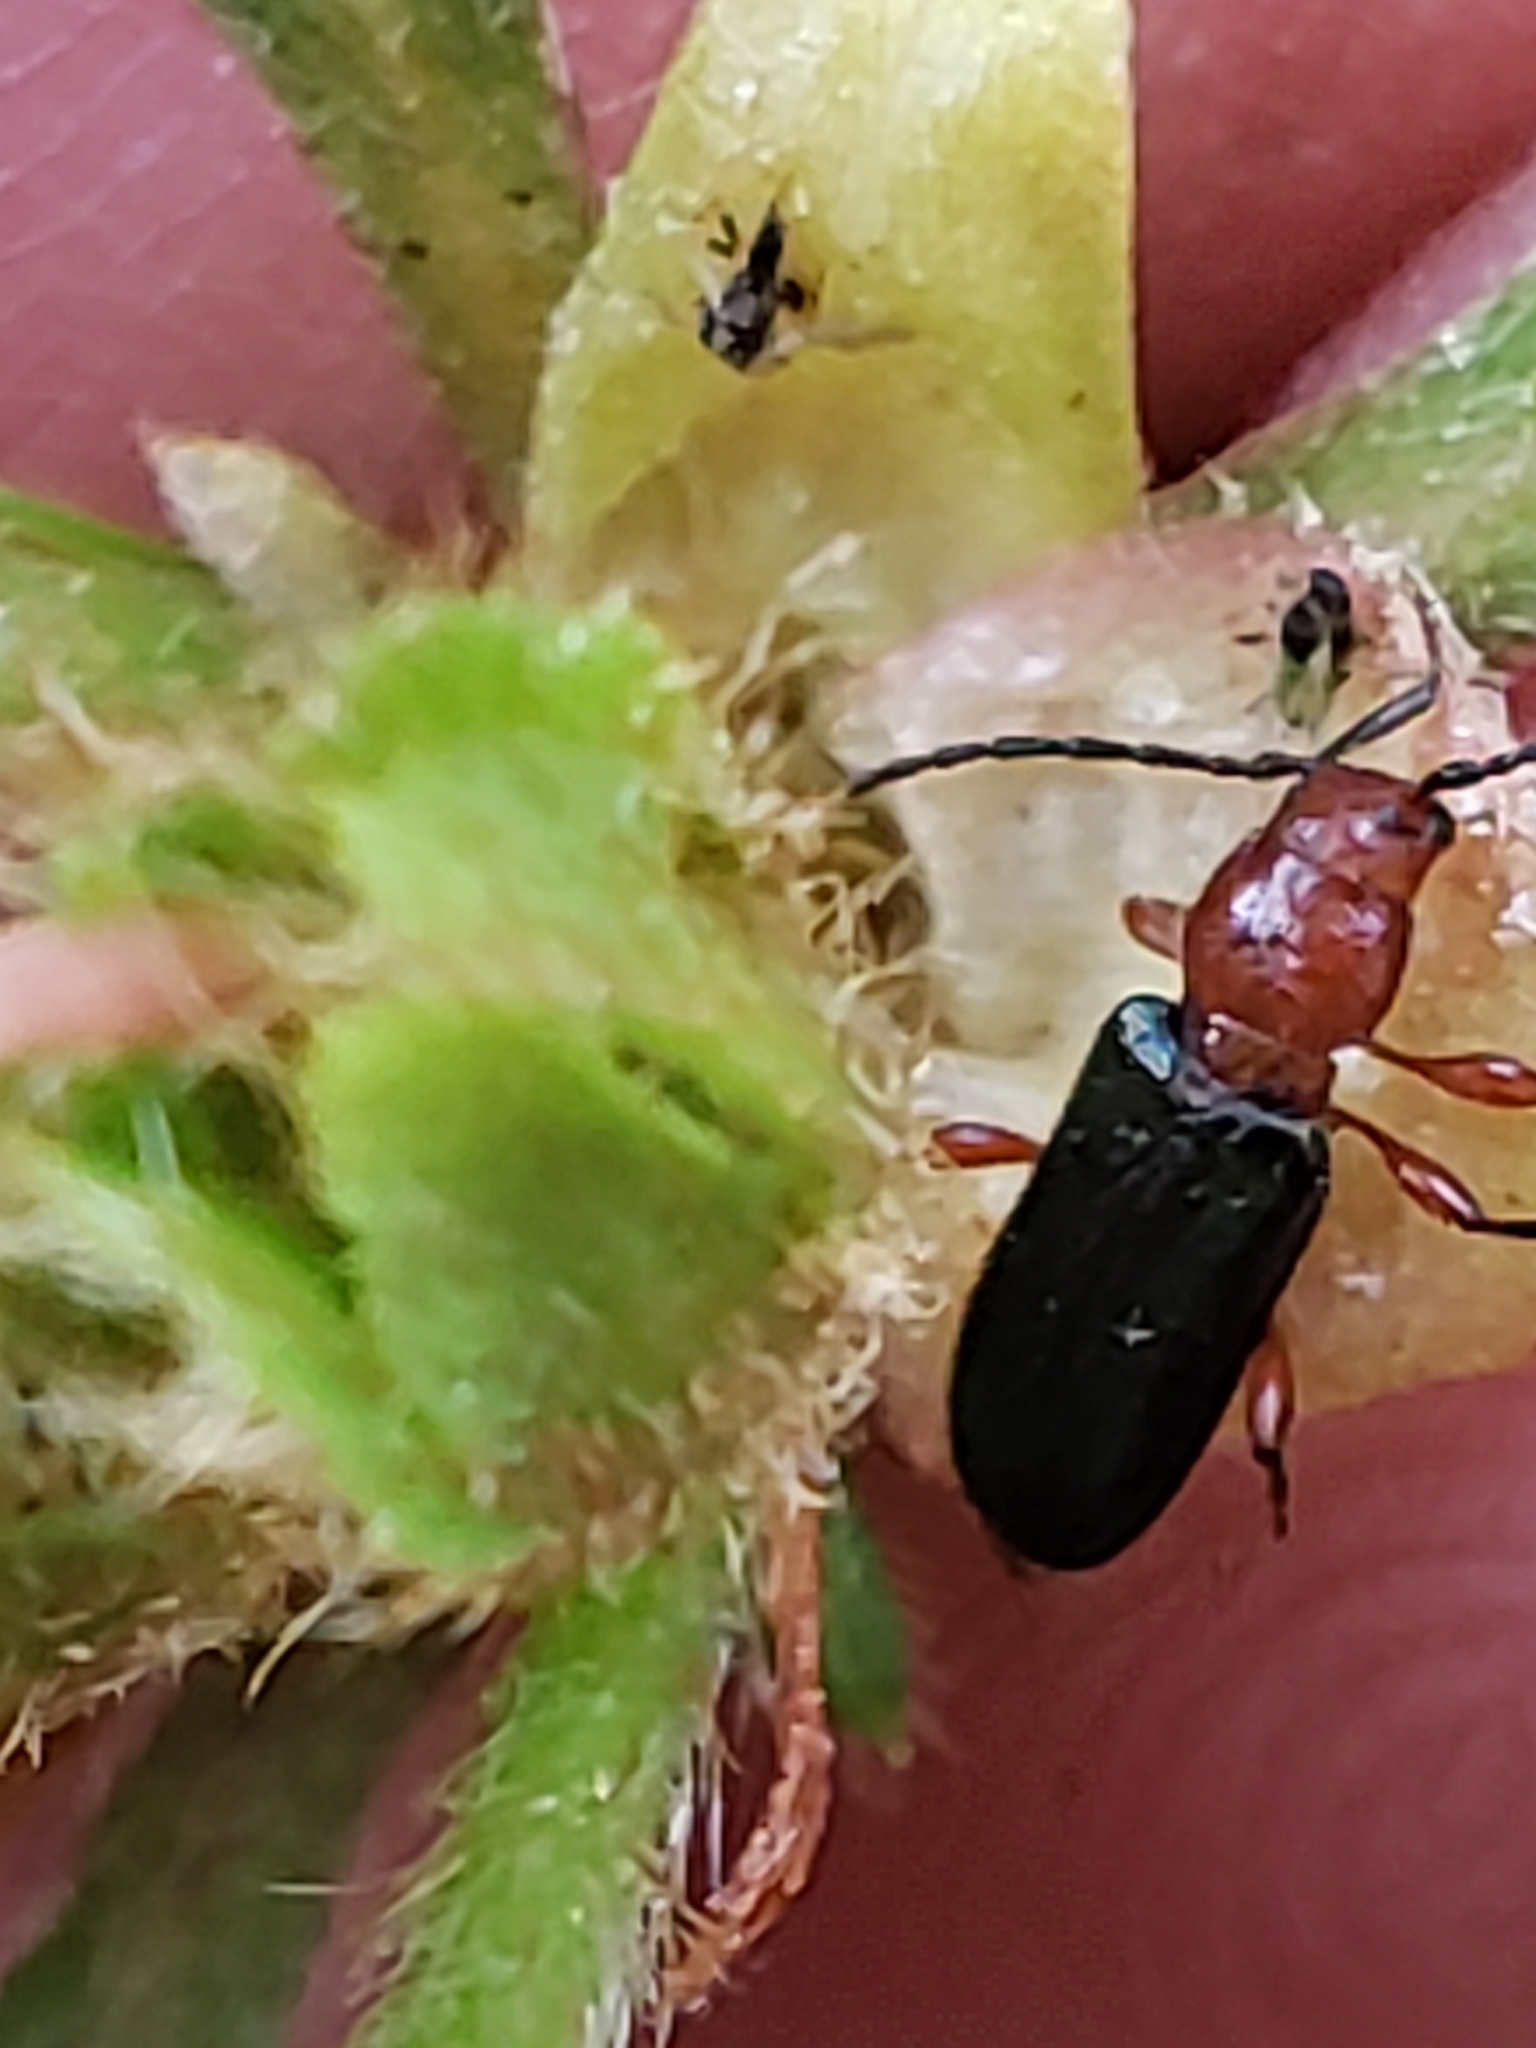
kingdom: Animalia
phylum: Arthropoda
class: Insecta
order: Coleoptera
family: Cerambycidae
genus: Phymatodes
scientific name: Phymatodes amoenus
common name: Grape-vine phymatodes
